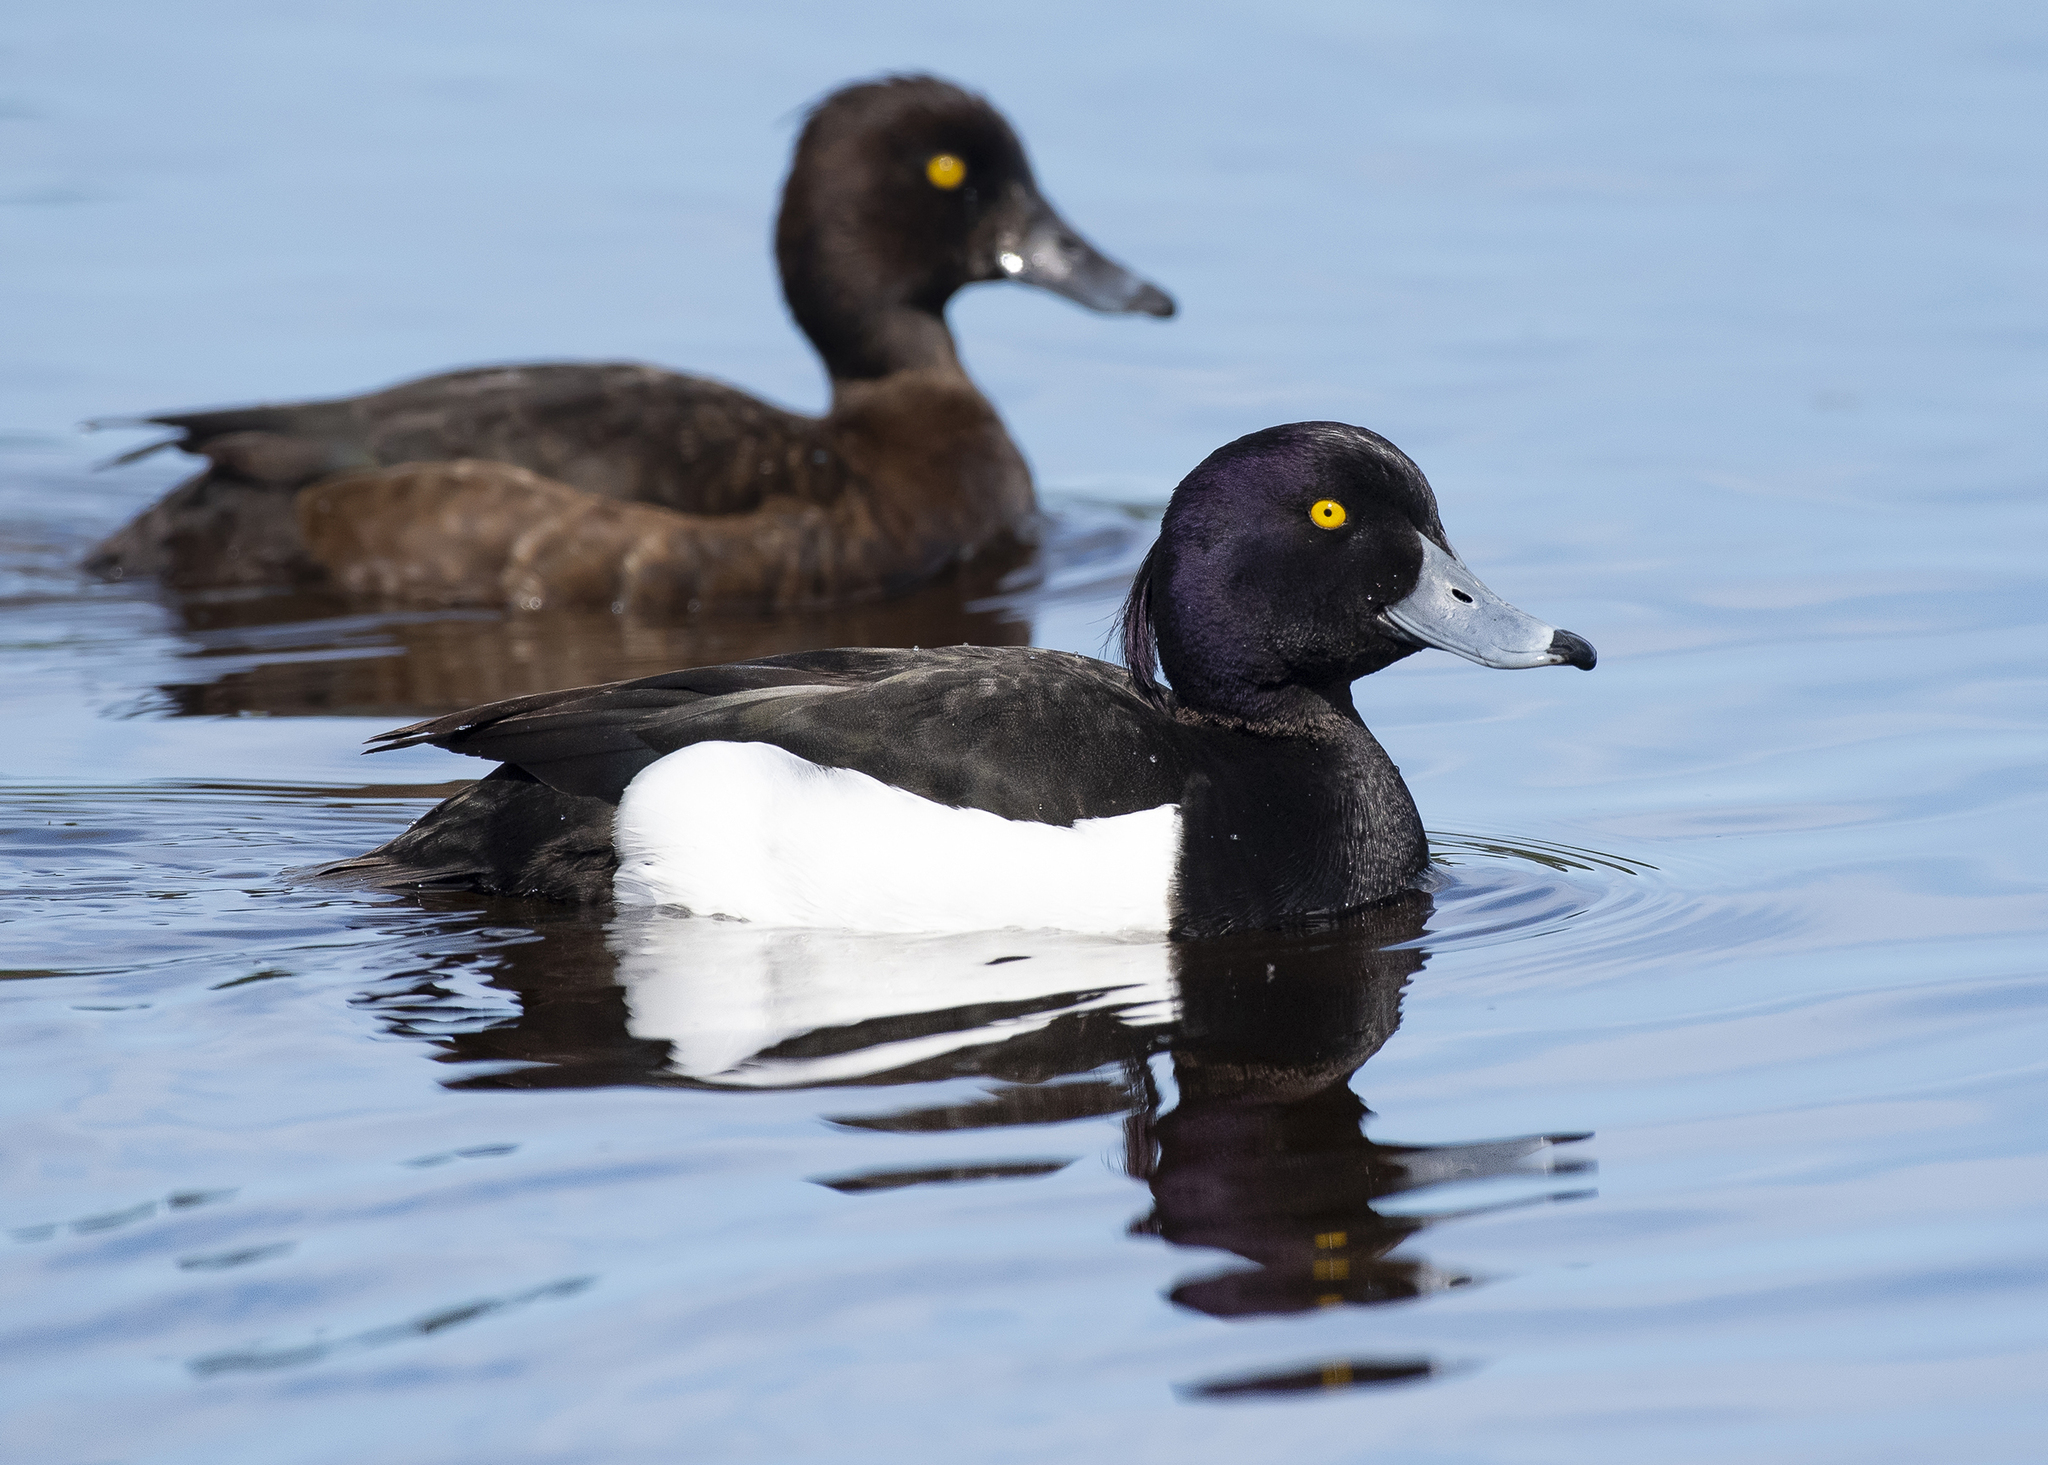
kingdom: Animalia
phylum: Chordata
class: Aves
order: Anseriformes
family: Anatidae
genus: Aythya
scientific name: Aythya fuligula
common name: Tufted duck
